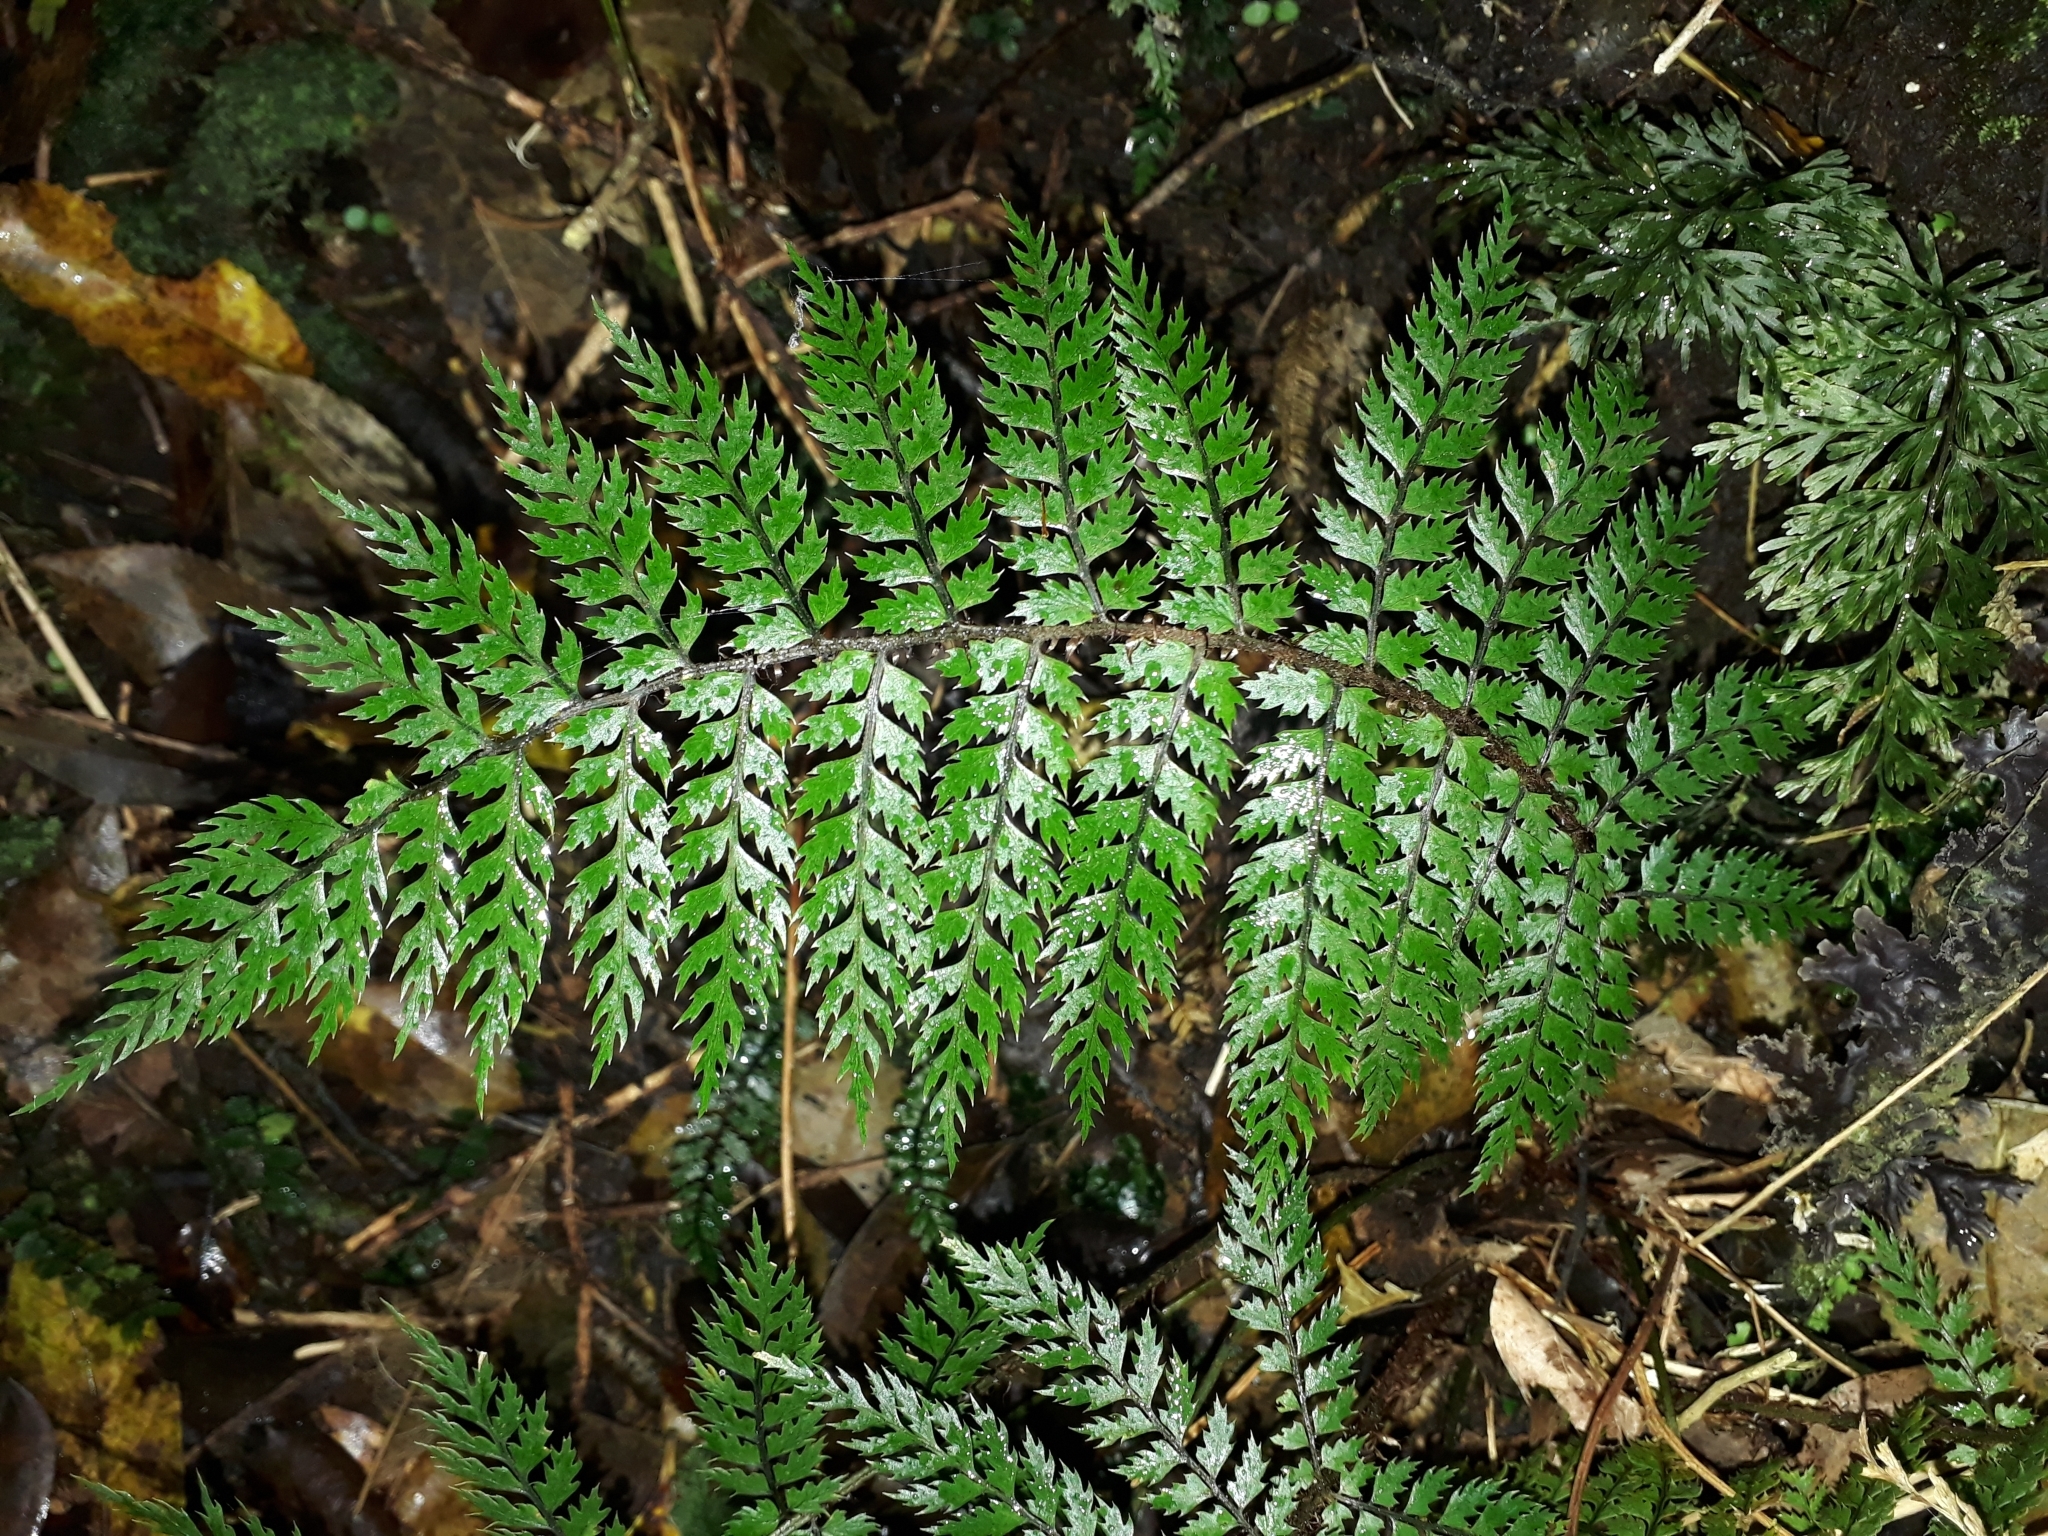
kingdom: Plantae
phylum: Tracheophyta
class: Polypodiopsida
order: Polypodiales
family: Dryopteridaceae
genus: Polystichum
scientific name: Polystichum silvaticum
